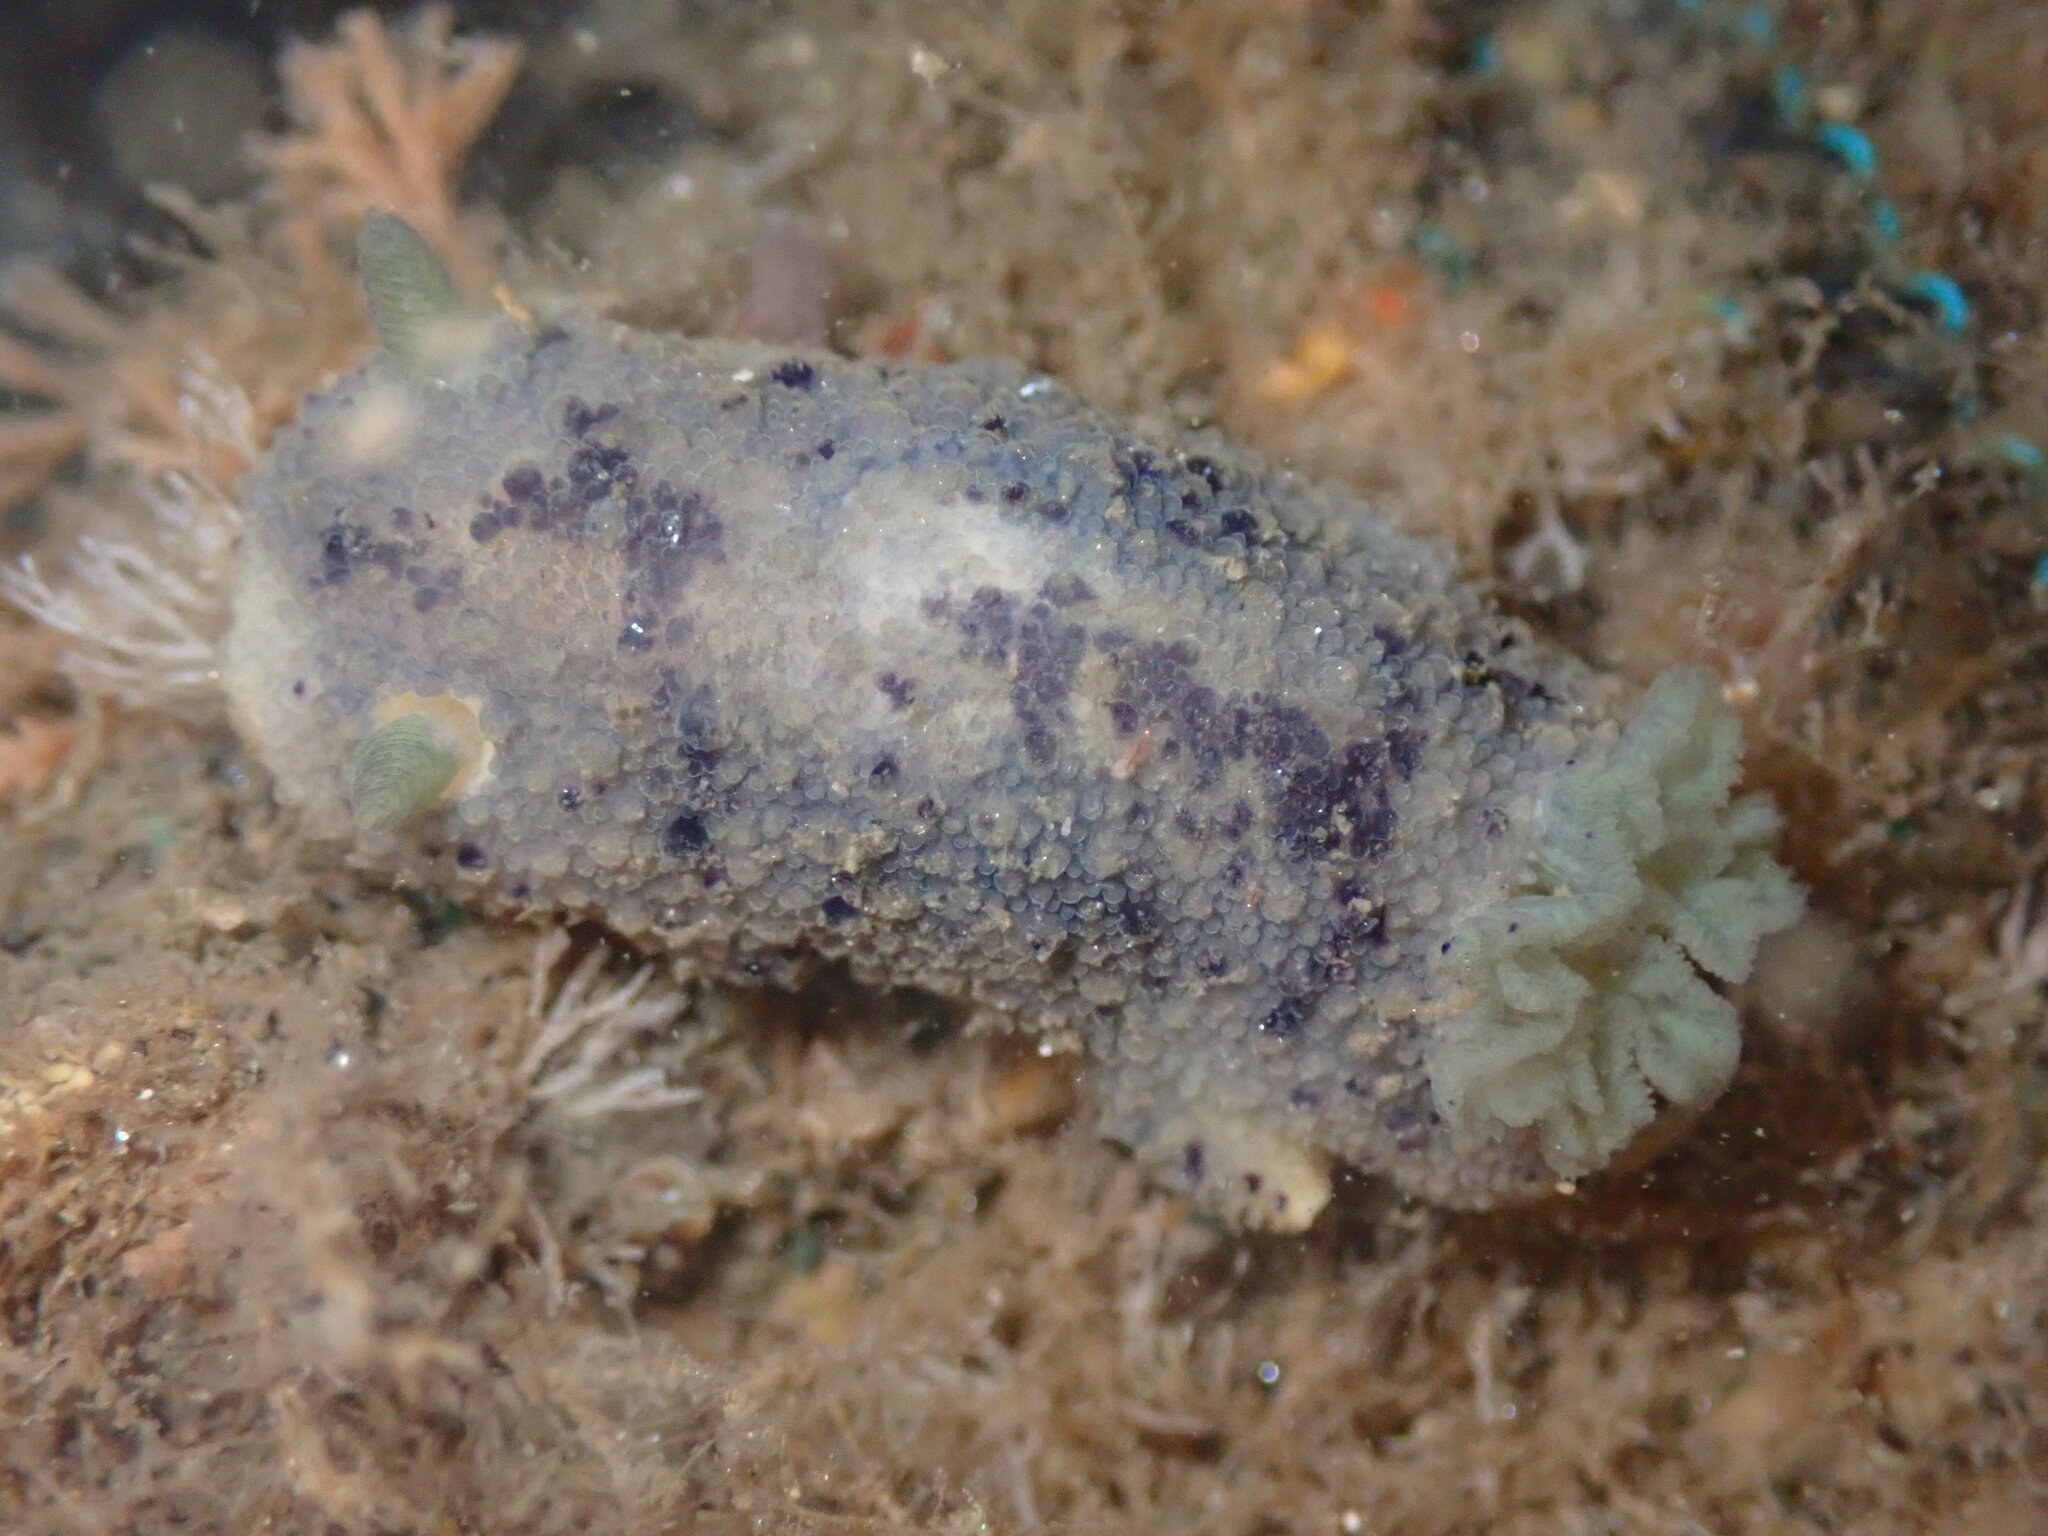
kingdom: Animalia
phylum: Mollusca
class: Gastropoda
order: Nudibranchia
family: Dorididae
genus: Doris
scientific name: Doris montereyensis
